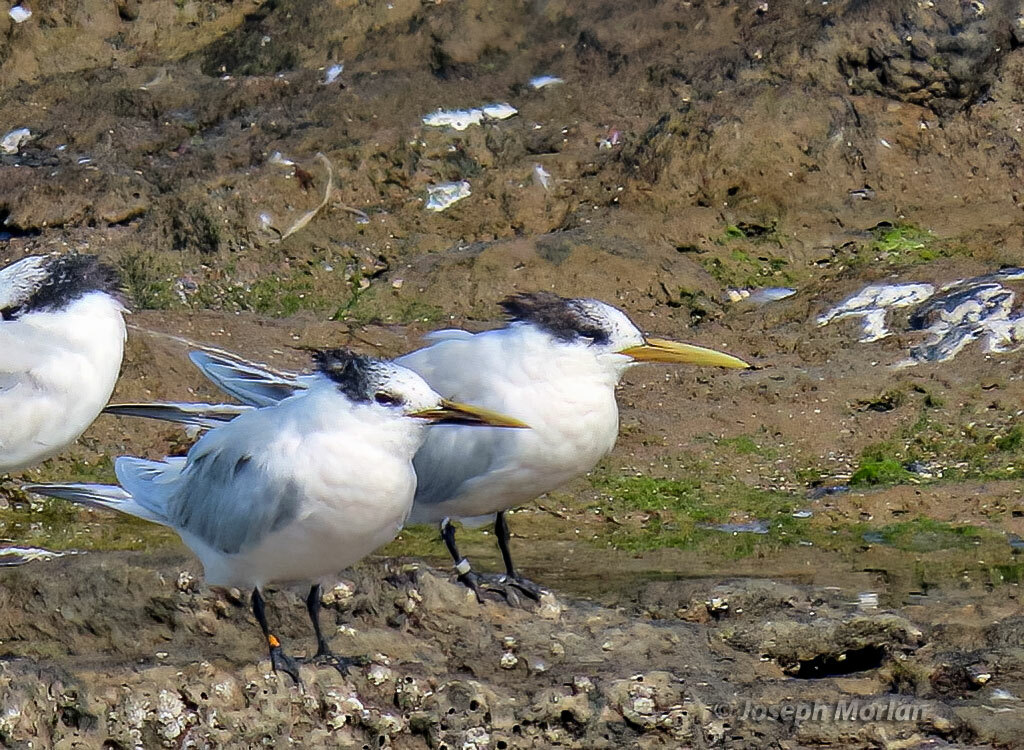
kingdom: Animalia
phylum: Chordata
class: Aves
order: Charadriiformes
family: Laridae
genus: Thalasseus
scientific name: Thalasseus sandvicensis
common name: Sandwich tern
